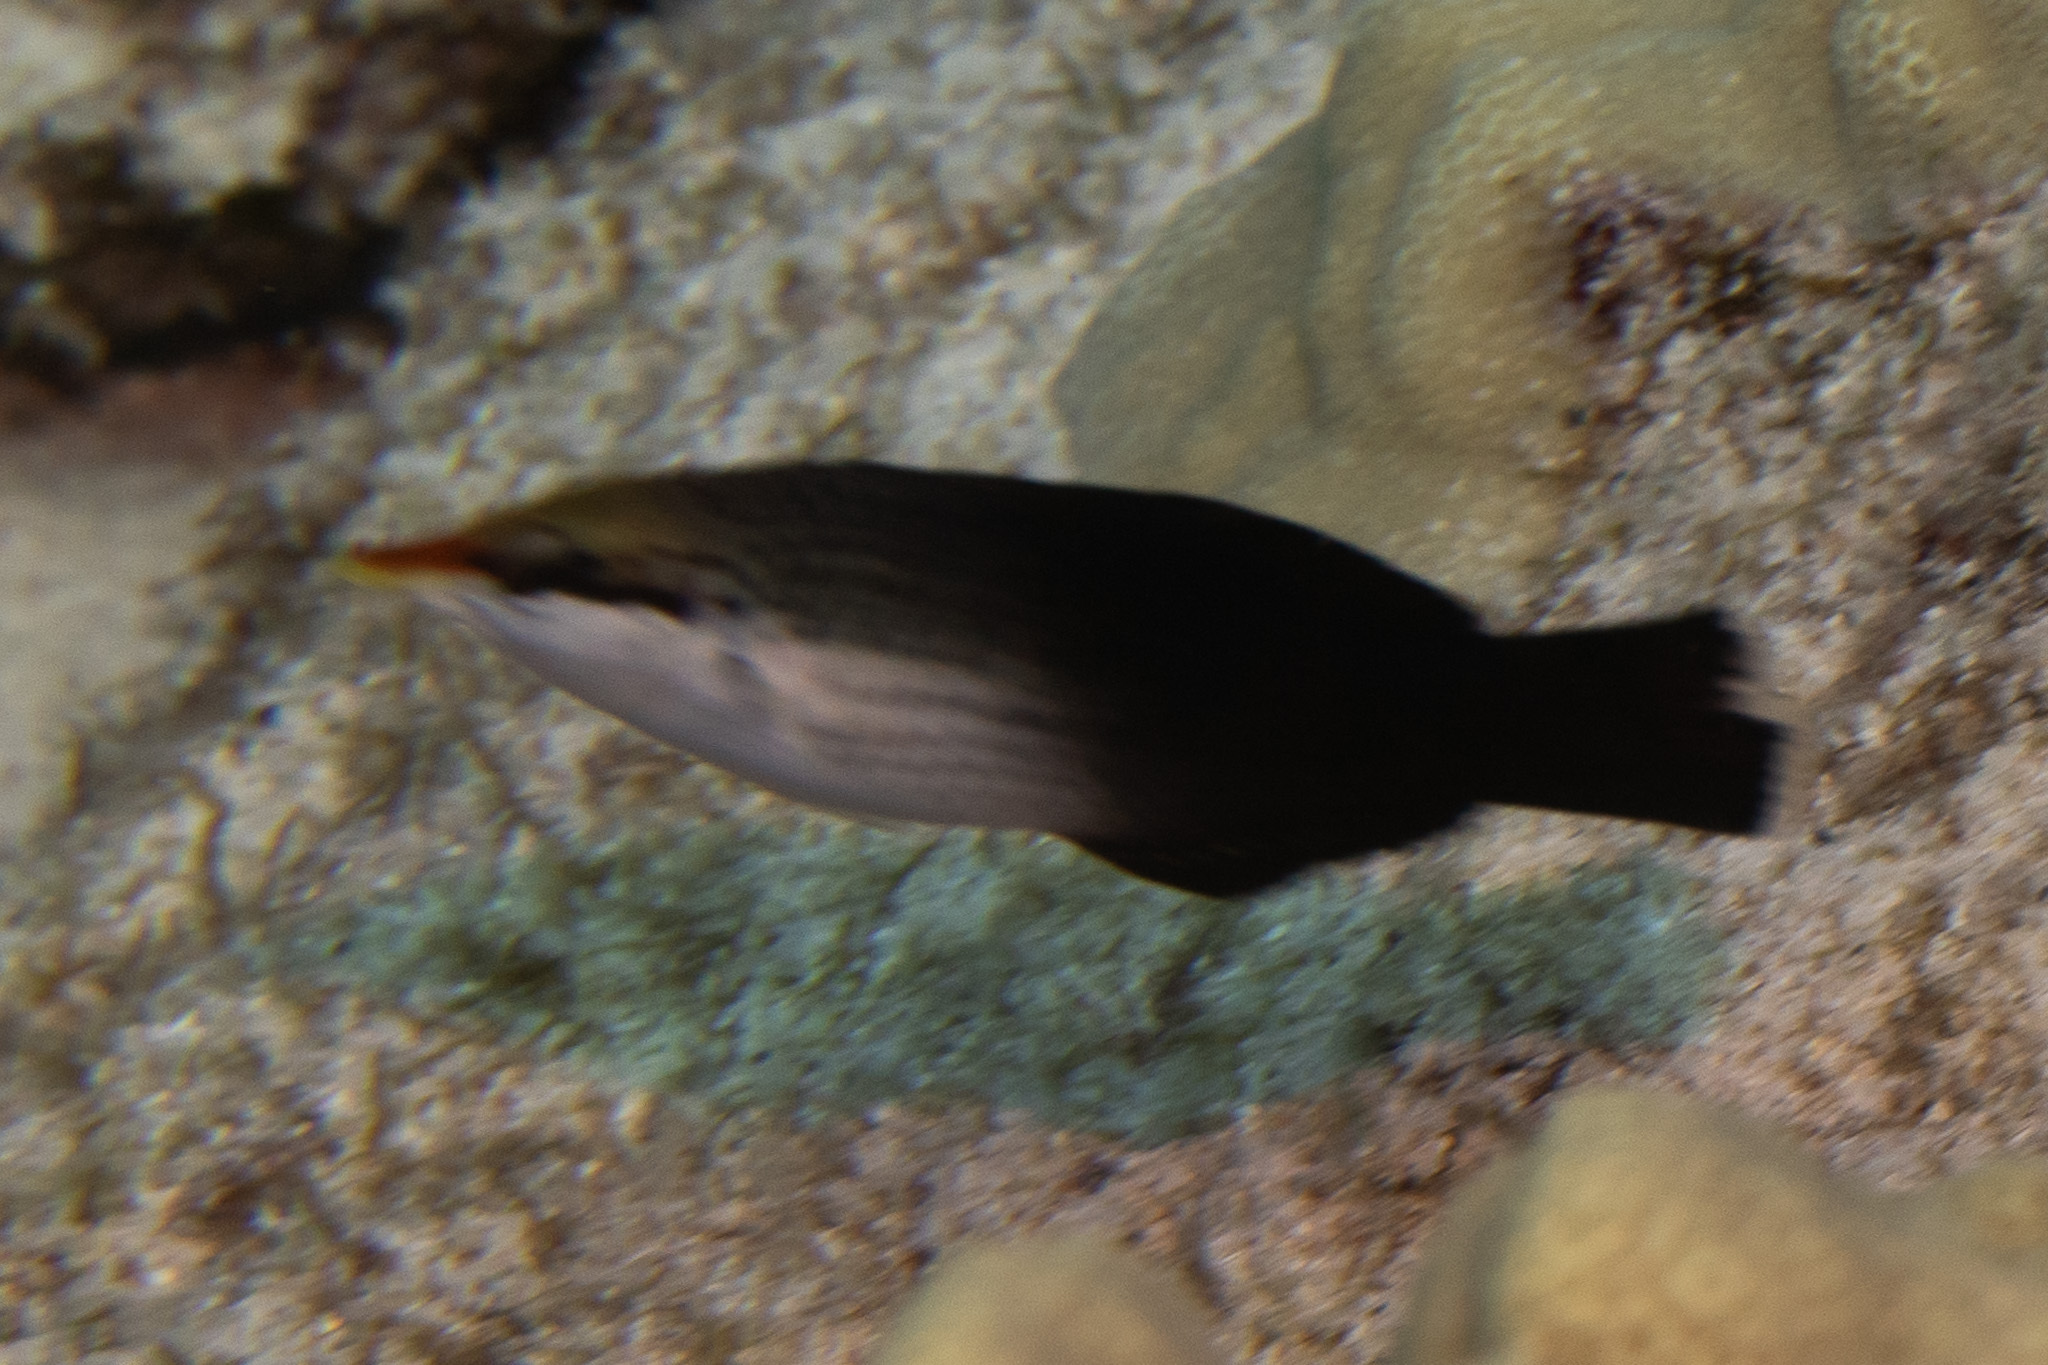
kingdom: Animalia
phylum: Chordata
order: Perciformes
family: Labridae
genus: Gomphosus
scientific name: Gomphosus varius
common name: Bird wrasse
